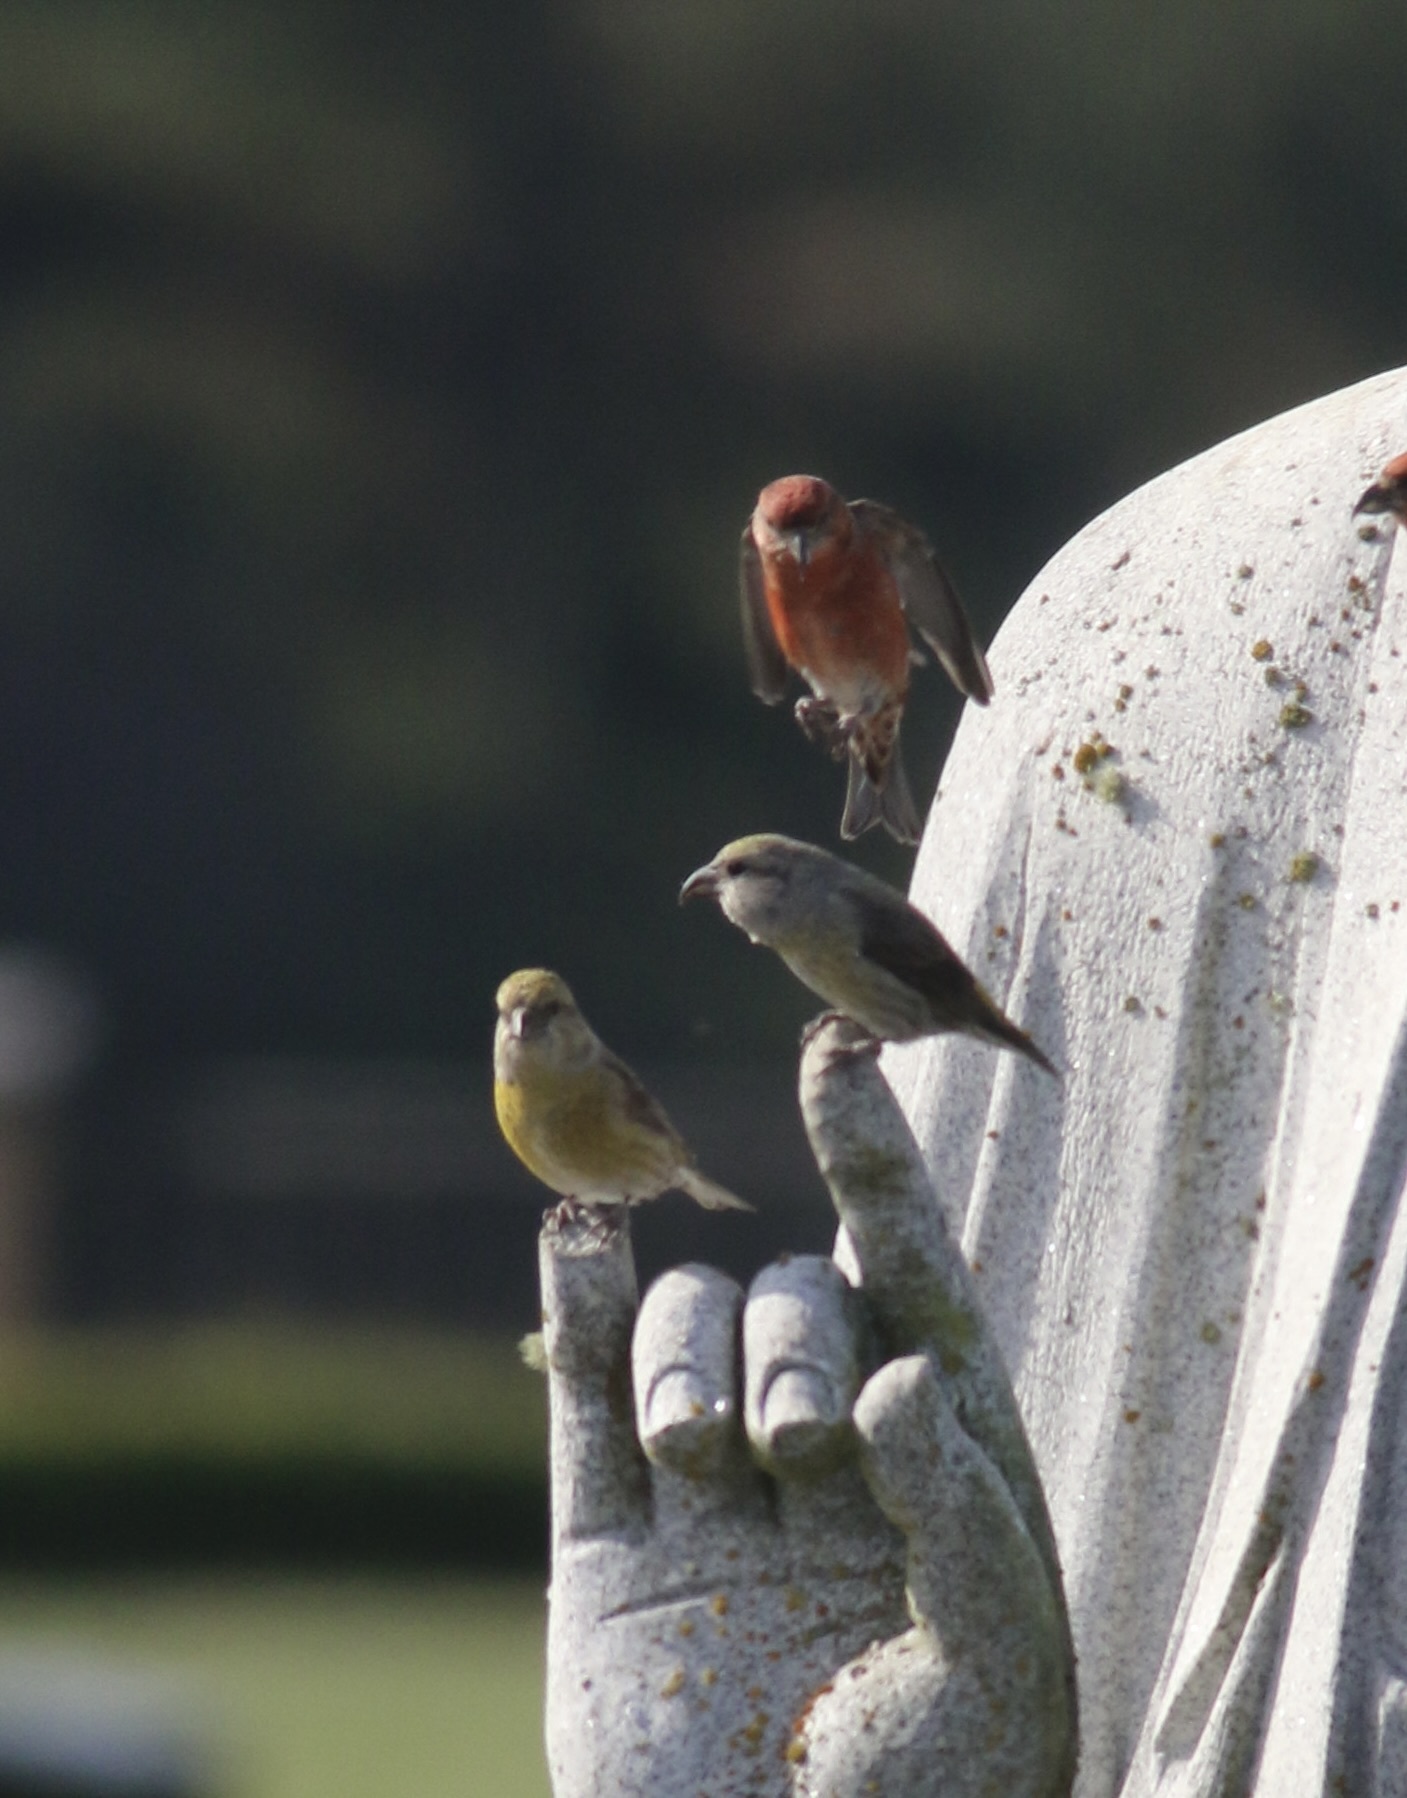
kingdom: Animalia
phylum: Chordata
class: Aves
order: Passeriformes
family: Fringillidae
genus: Loxia
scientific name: Loxia curvirostra
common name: Red crossbill
